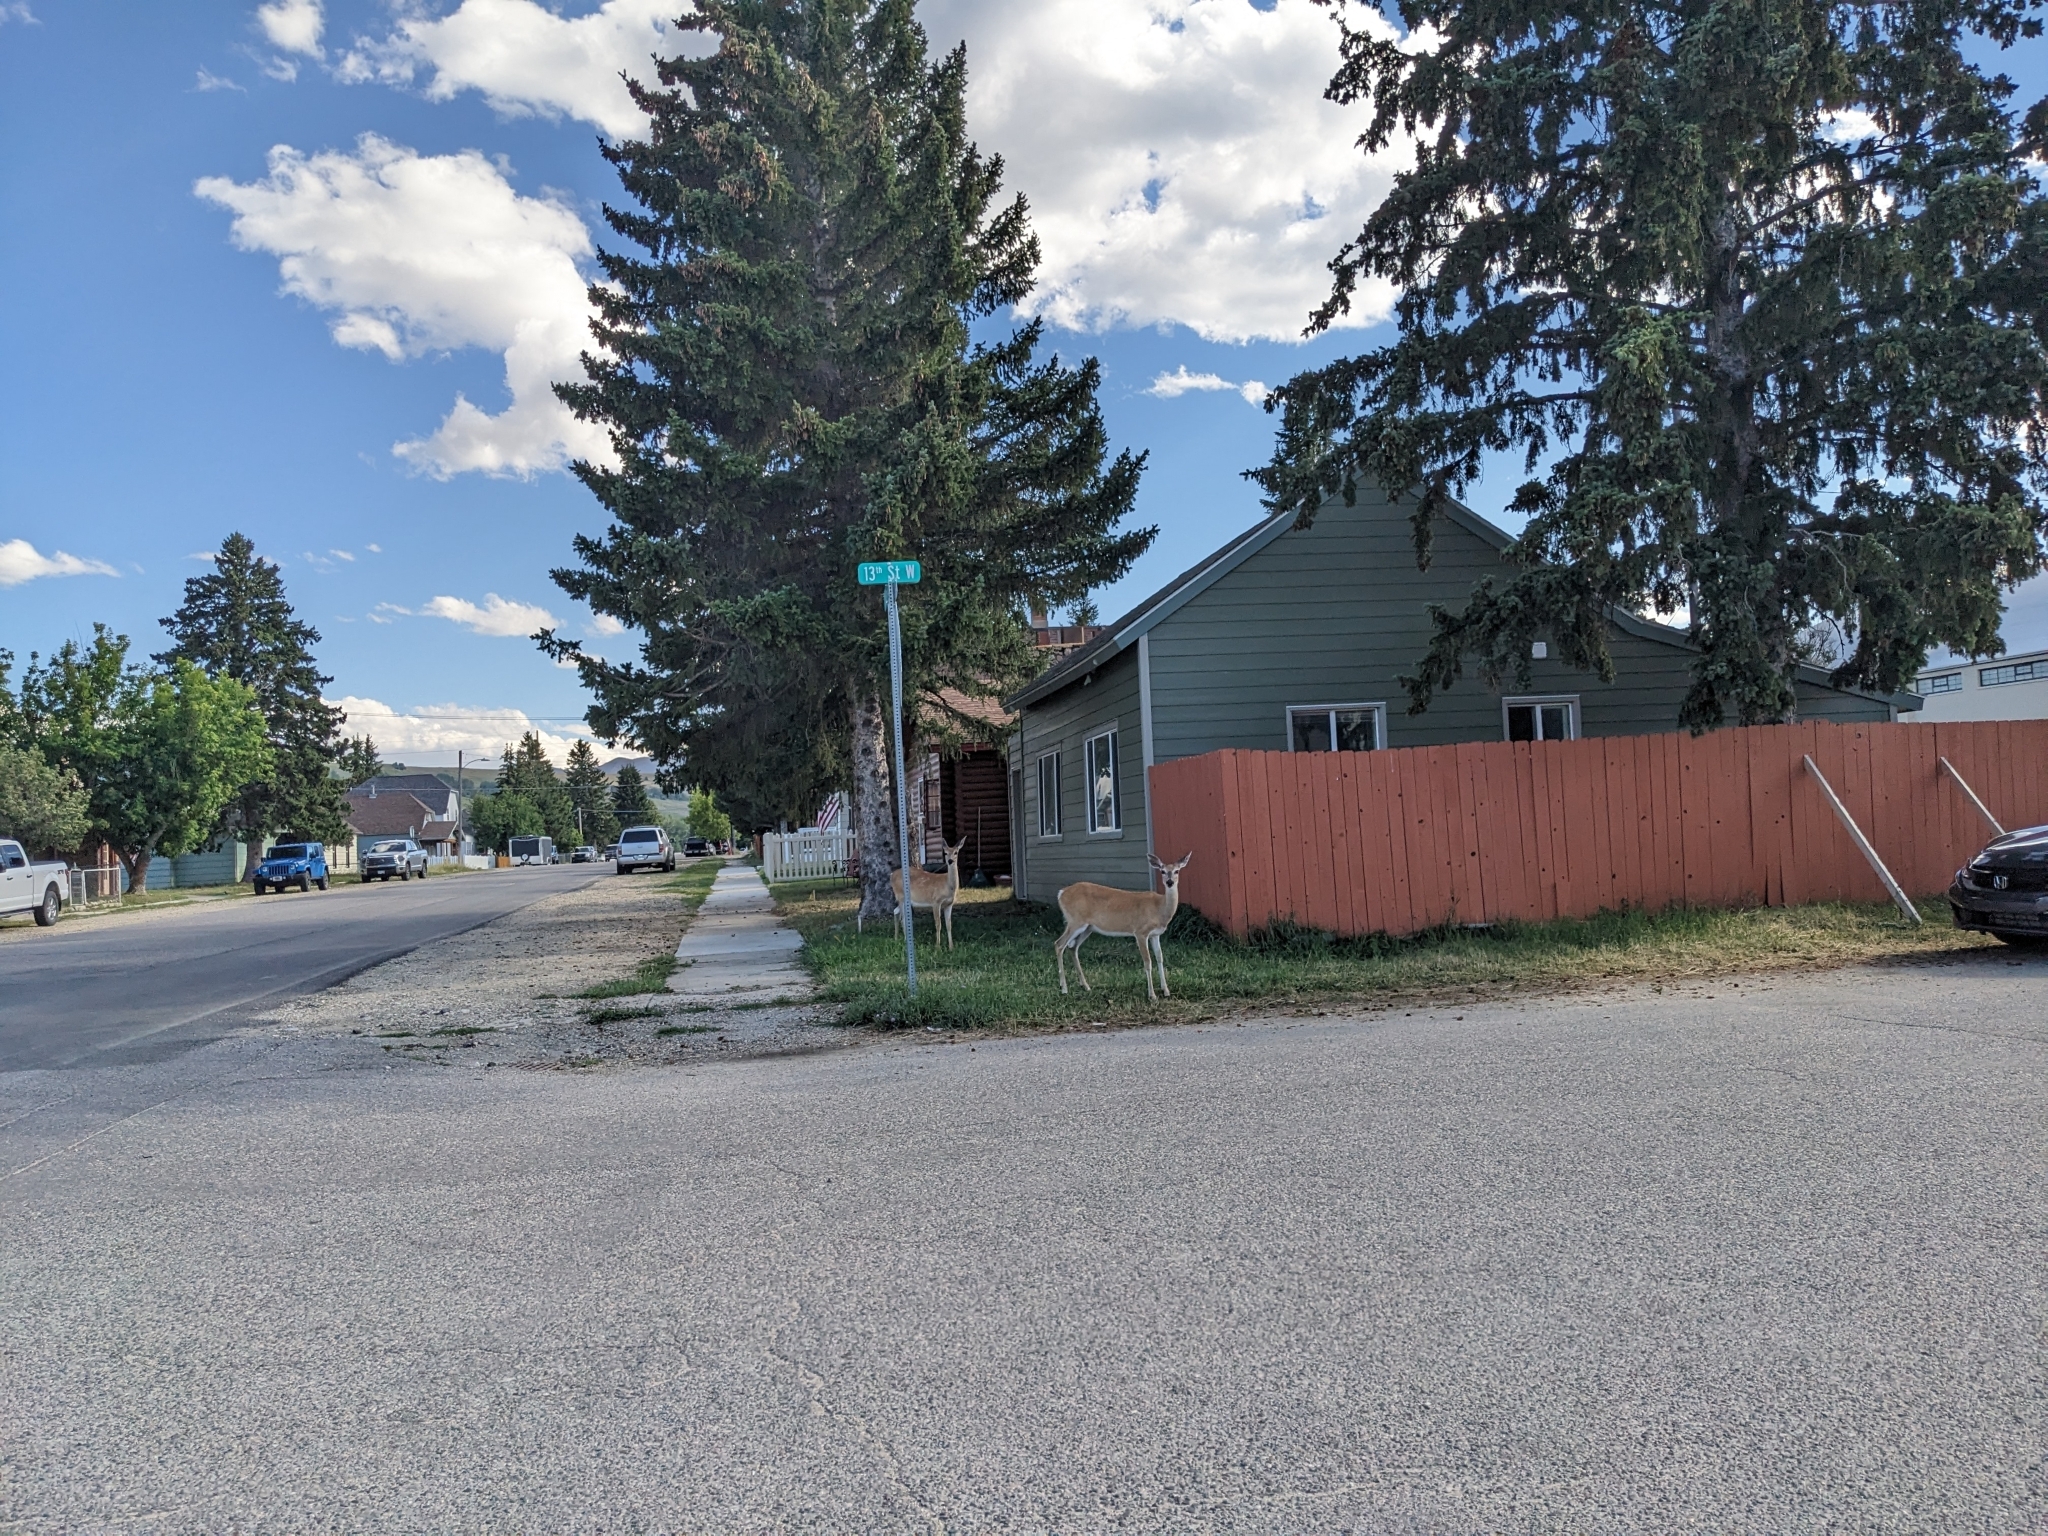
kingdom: Animalia
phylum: Chordata
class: Mammalia
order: Artiodactyla
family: Cervidae
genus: Odocoileus
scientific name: Odocoileus virginianus
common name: White-tailed deer
